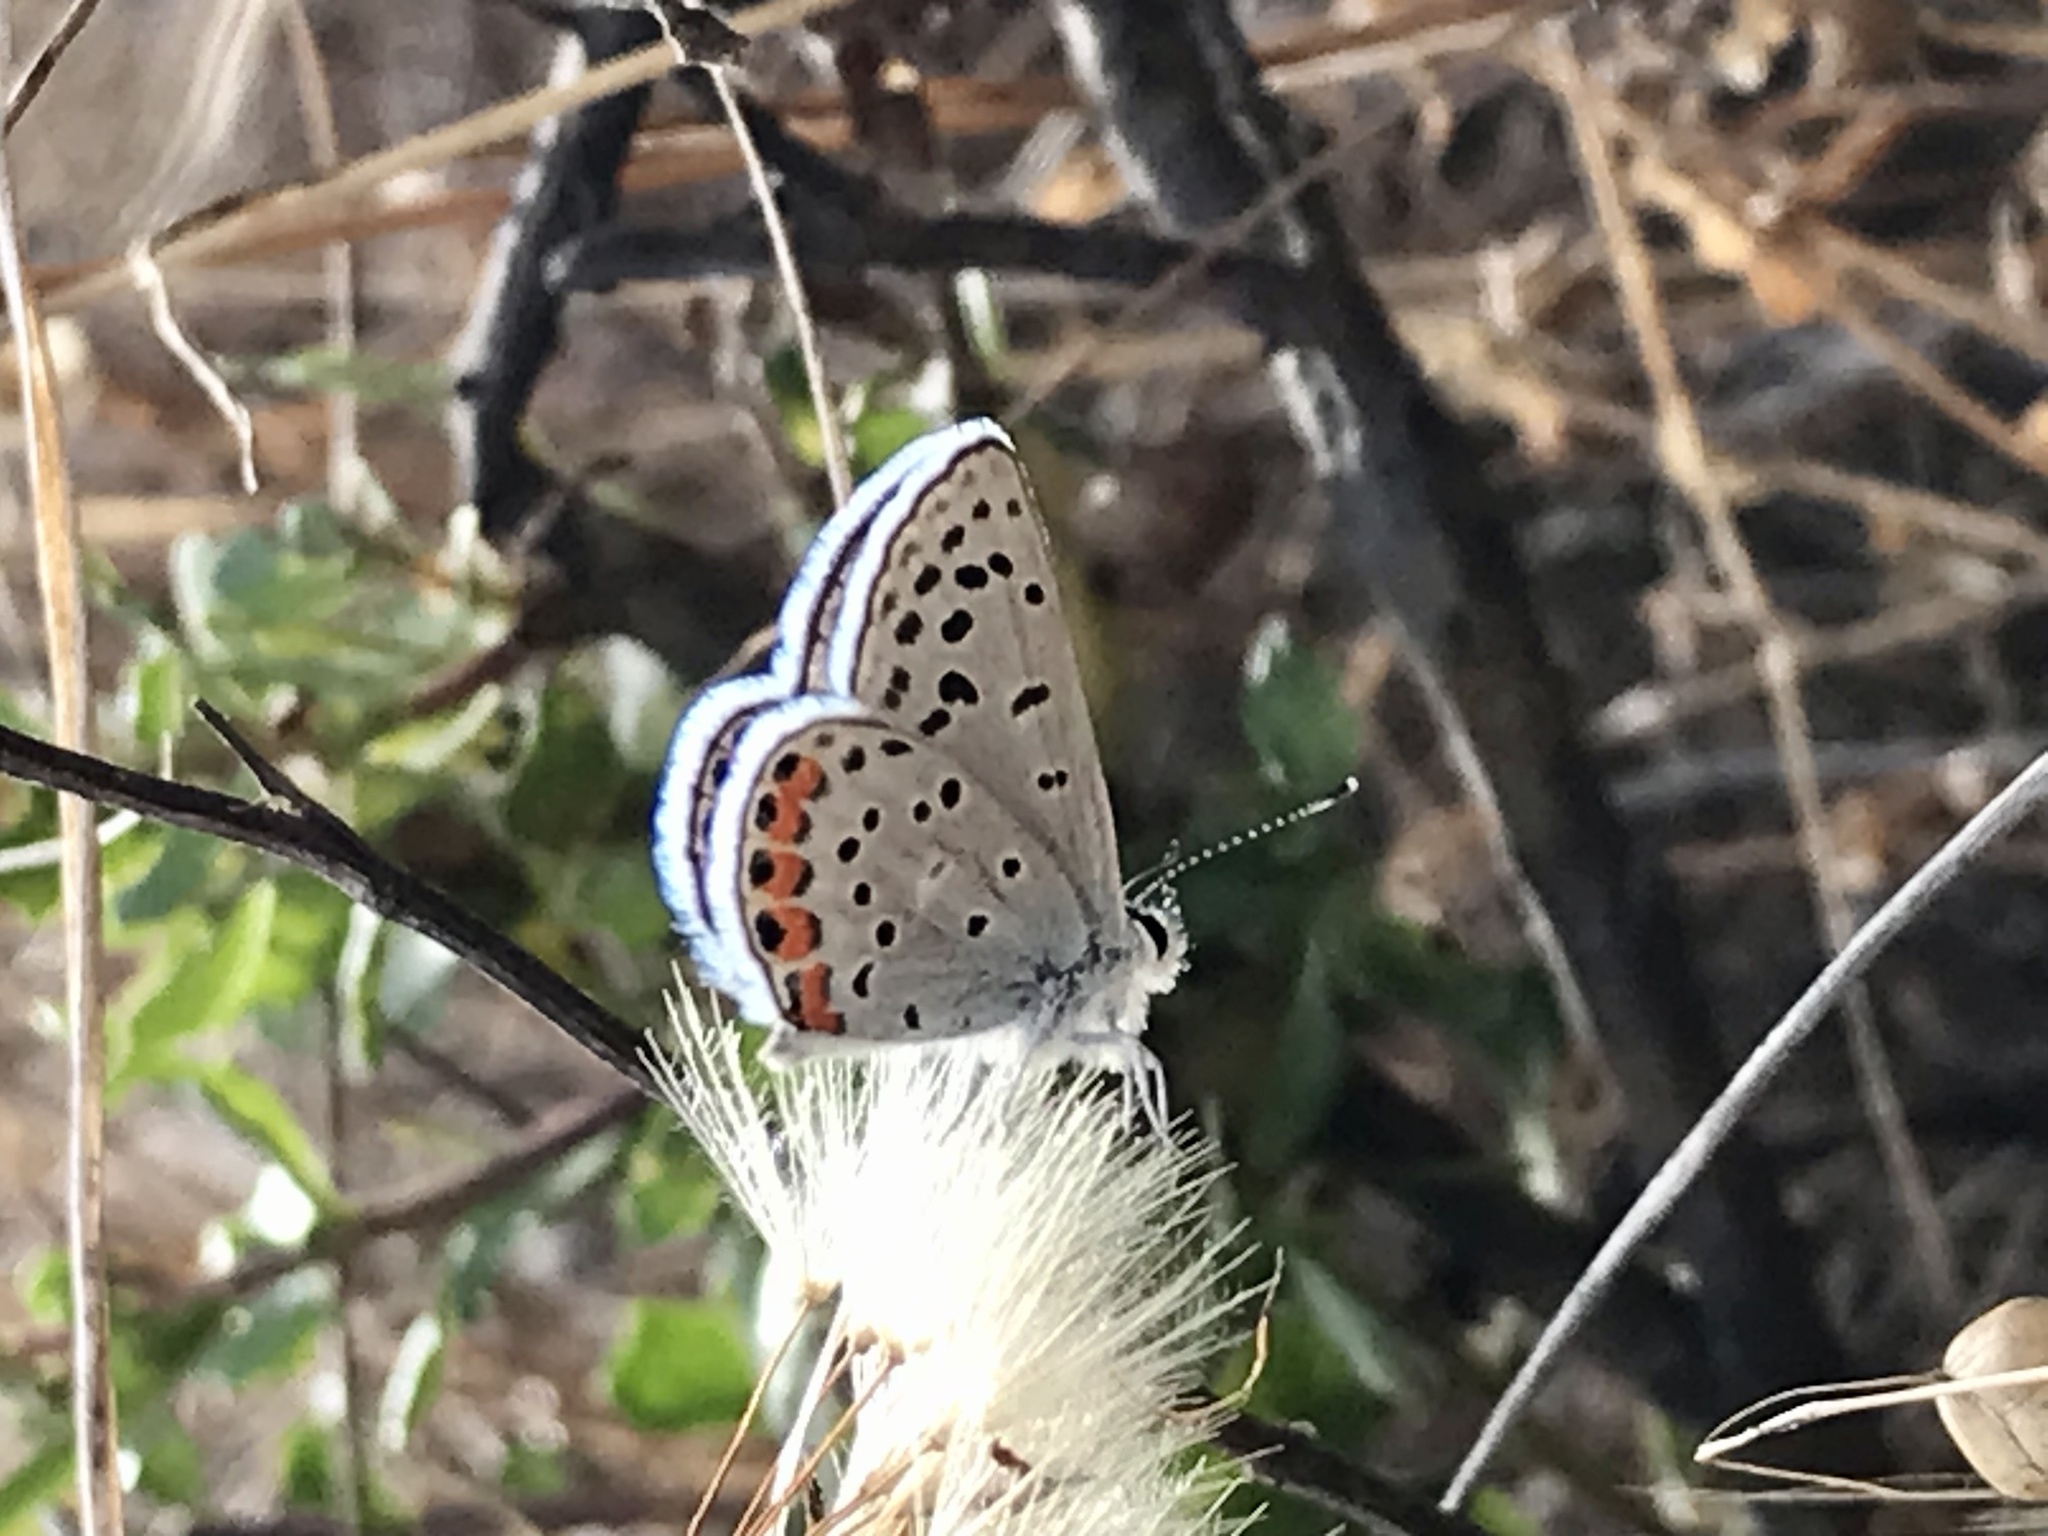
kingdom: Animalia
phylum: Arthropoda
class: Insecta
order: Lepidoptera
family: Lycaenidae
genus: Icaricia
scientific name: Icaricia acmon
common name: Acmon blue
